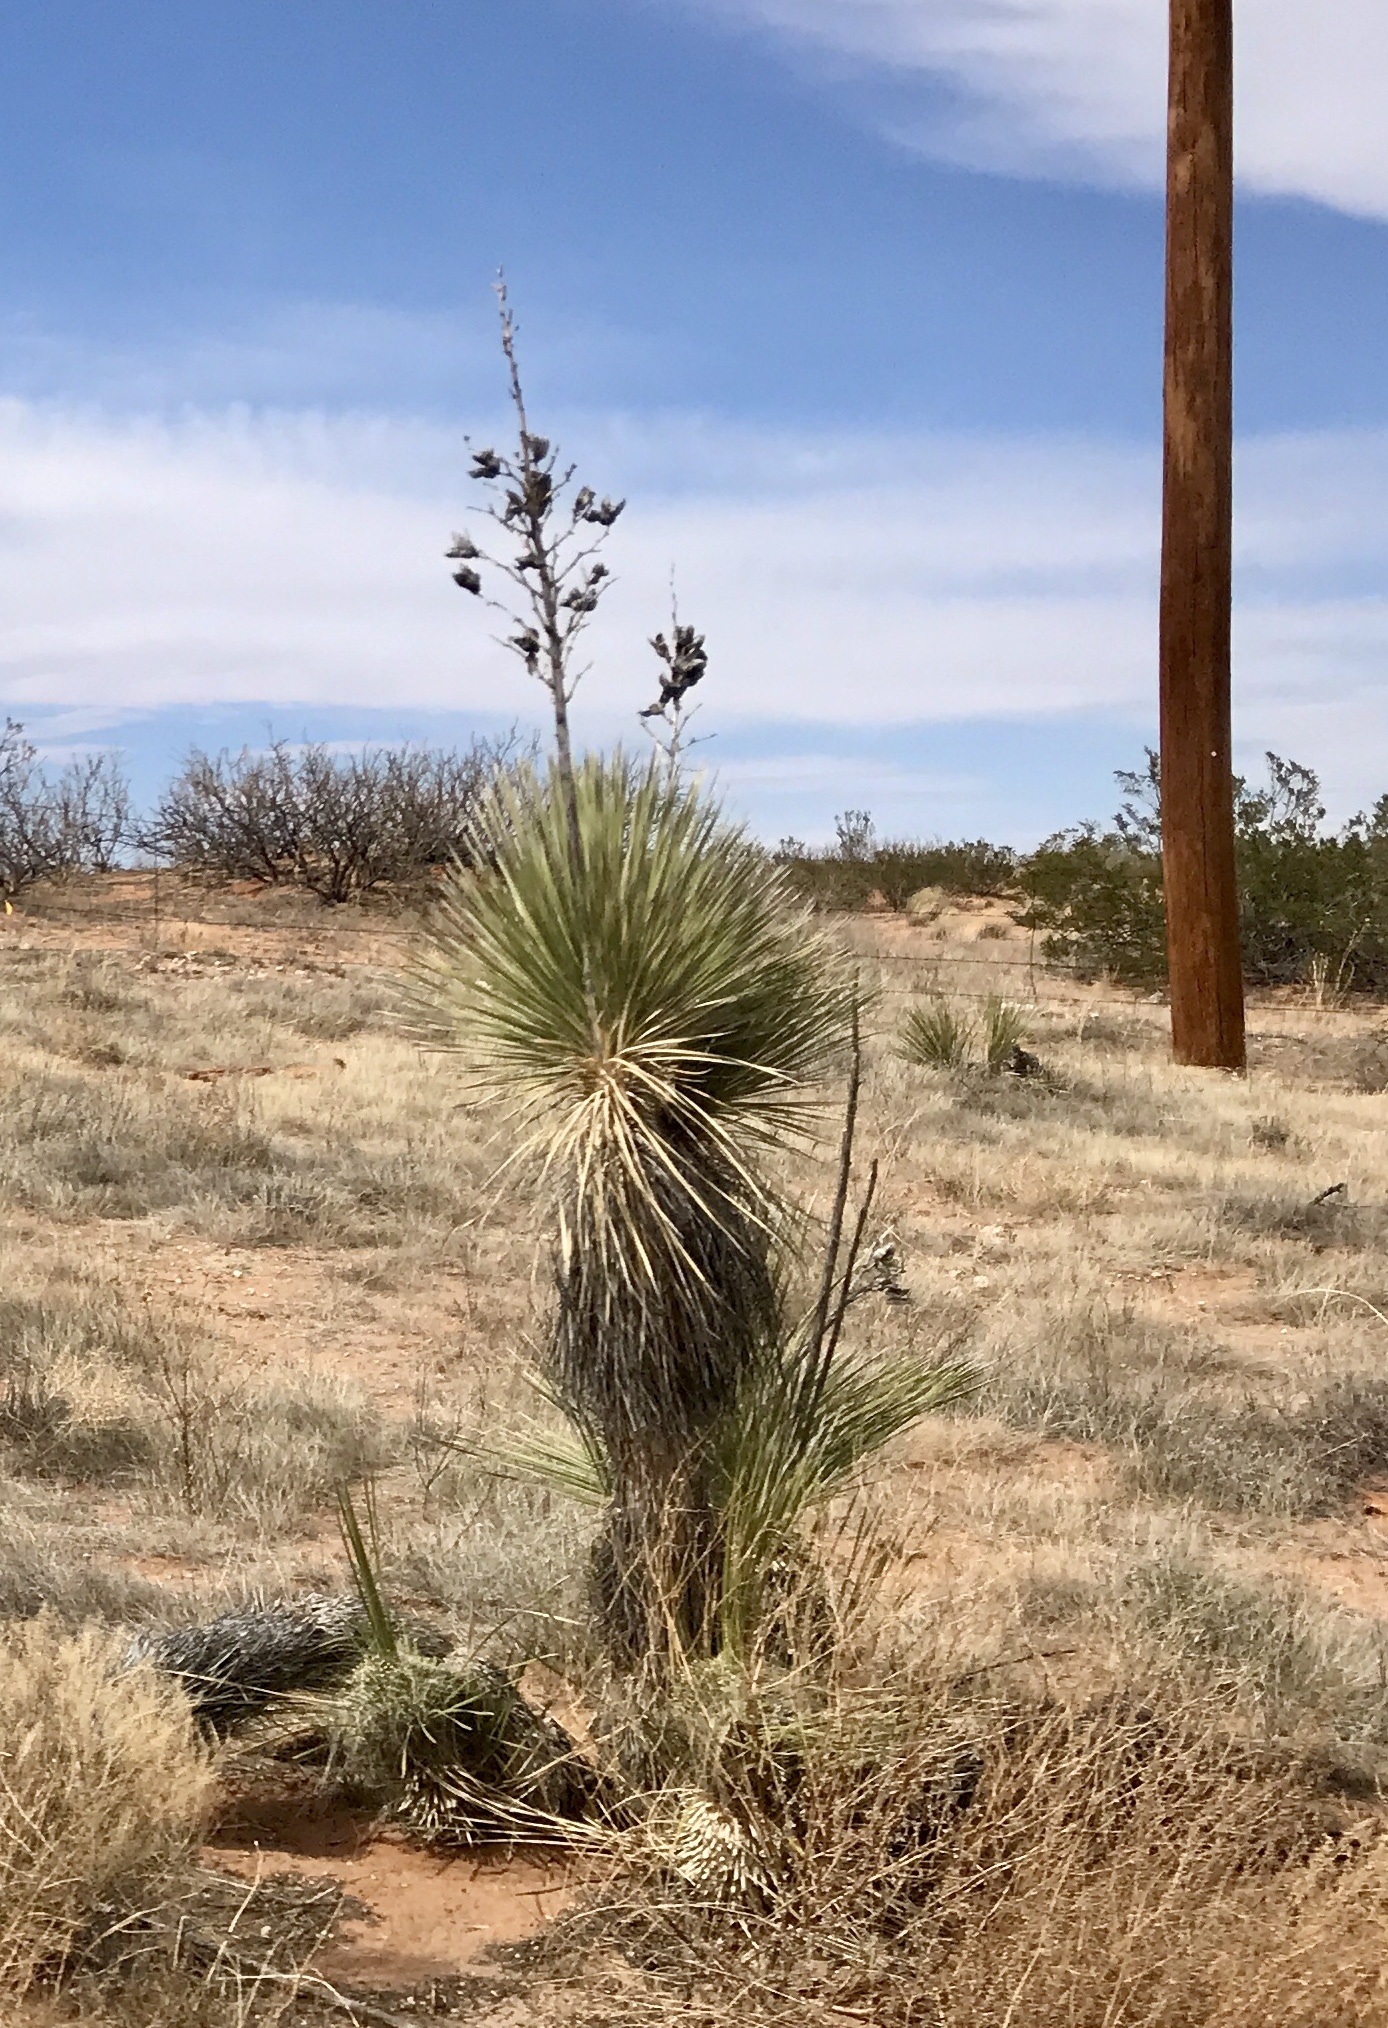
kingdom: Plantae
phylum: Tracheophyta
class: Liliopsida
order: Asparagales
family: Asparagaceae
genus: Yucca
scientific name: Yucca elata
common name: Palmella
